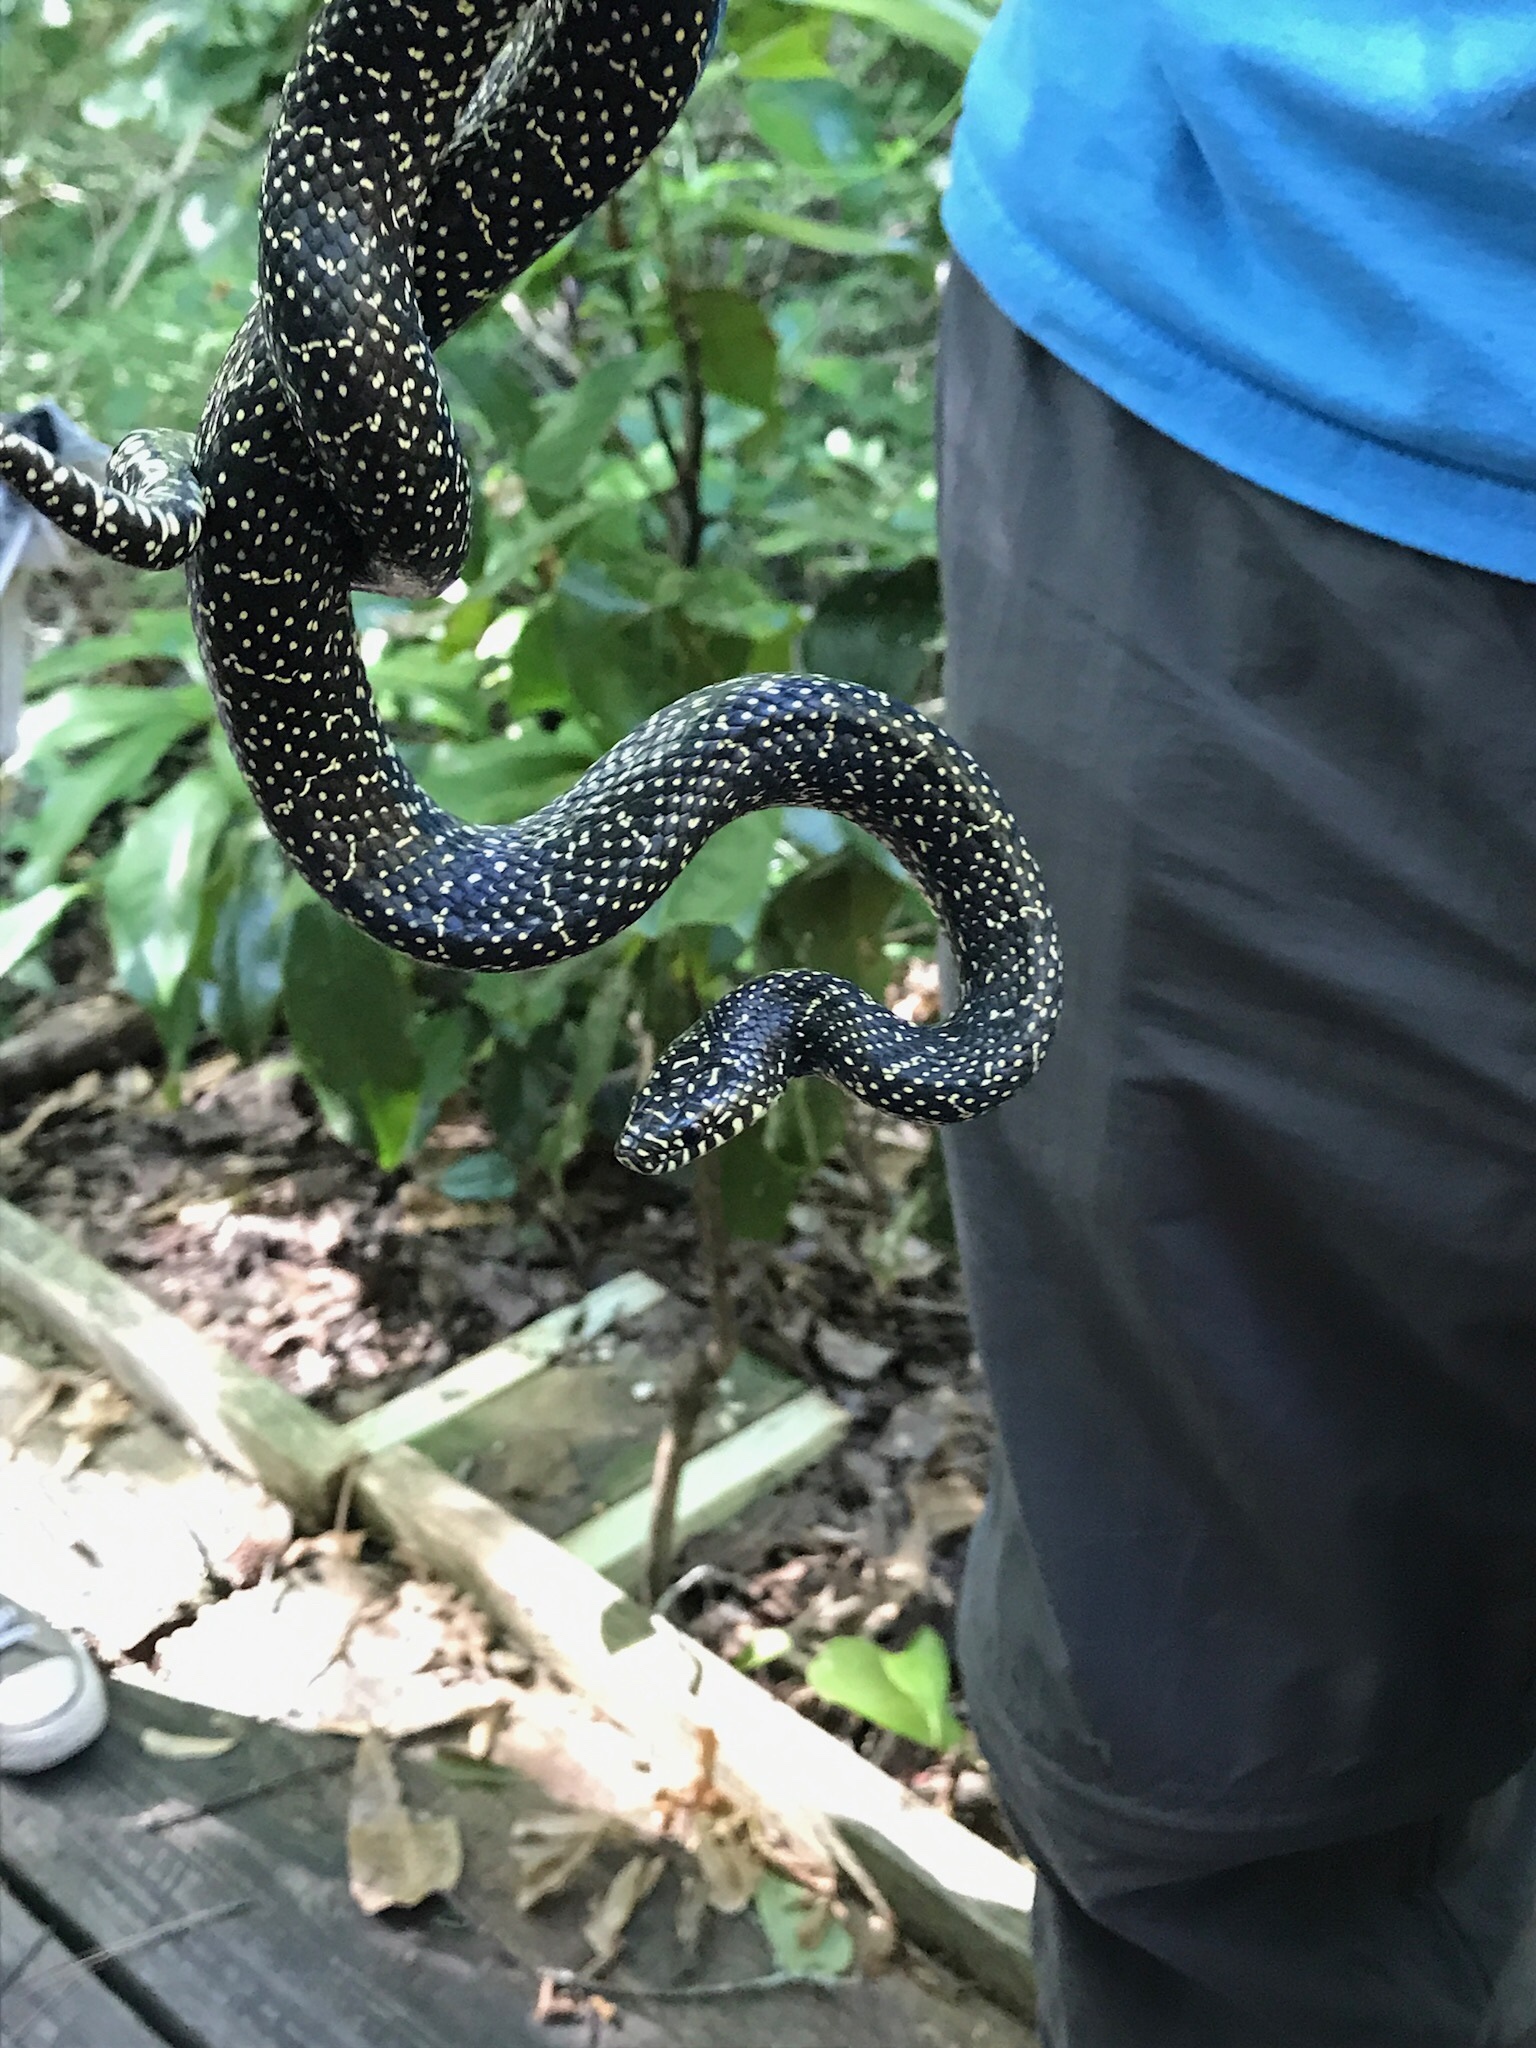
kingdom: Animalia
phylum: Chordata
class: Squamata
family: Colubridae
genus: Lampropeltis
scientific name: Lampropeltis holbrooki
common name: Speckled kingsnake
